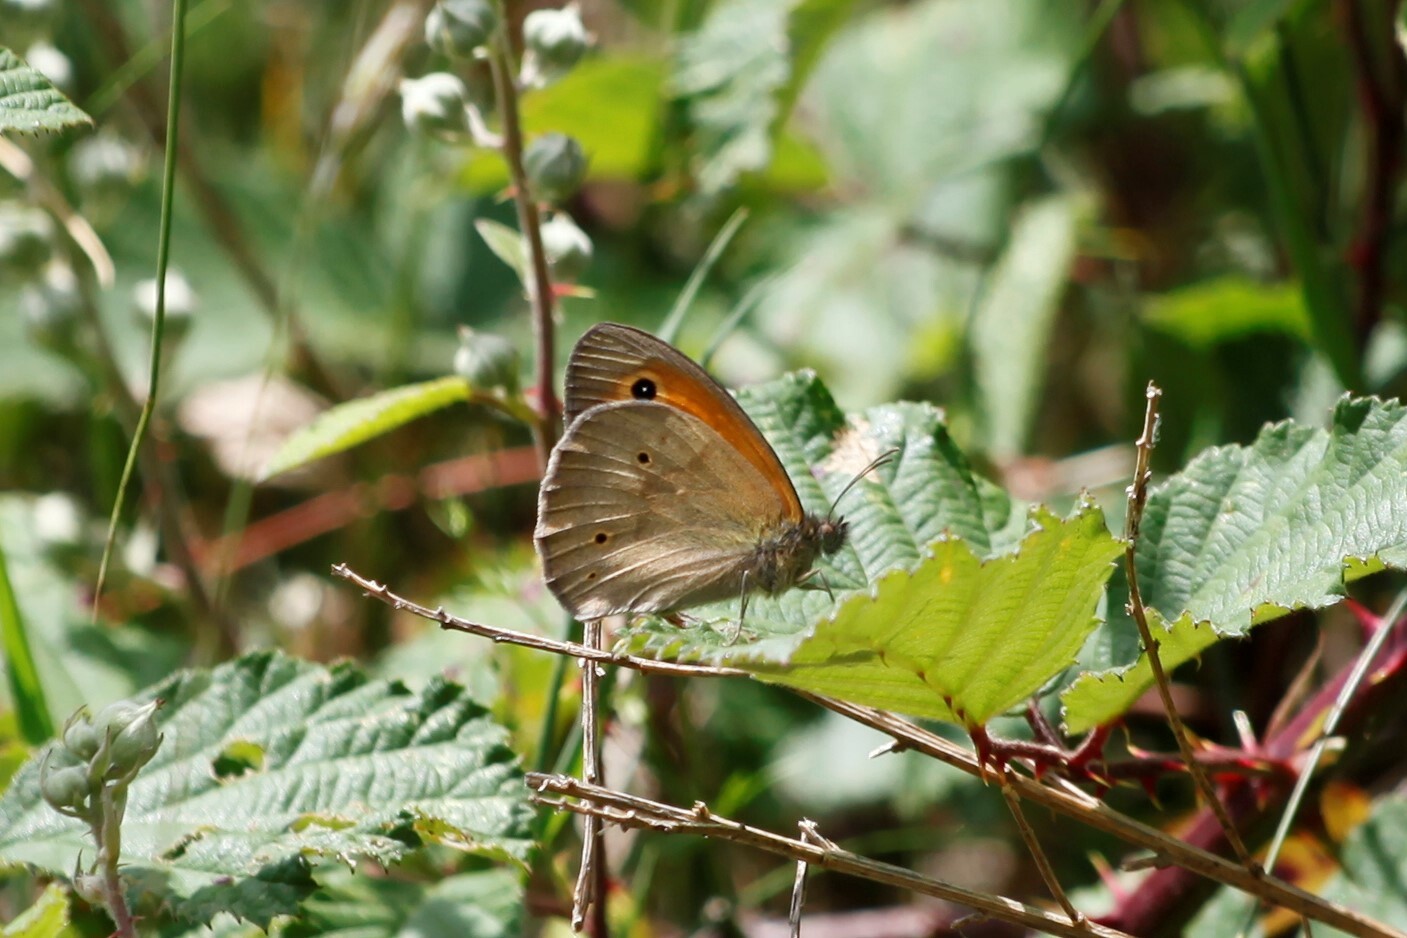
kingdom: Animalia
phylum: Arthropoda
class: Insecta
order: Lepidoptera
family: Nymphalidae
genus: Maniola
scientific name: Maniola jurtina
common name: Meadow brown
